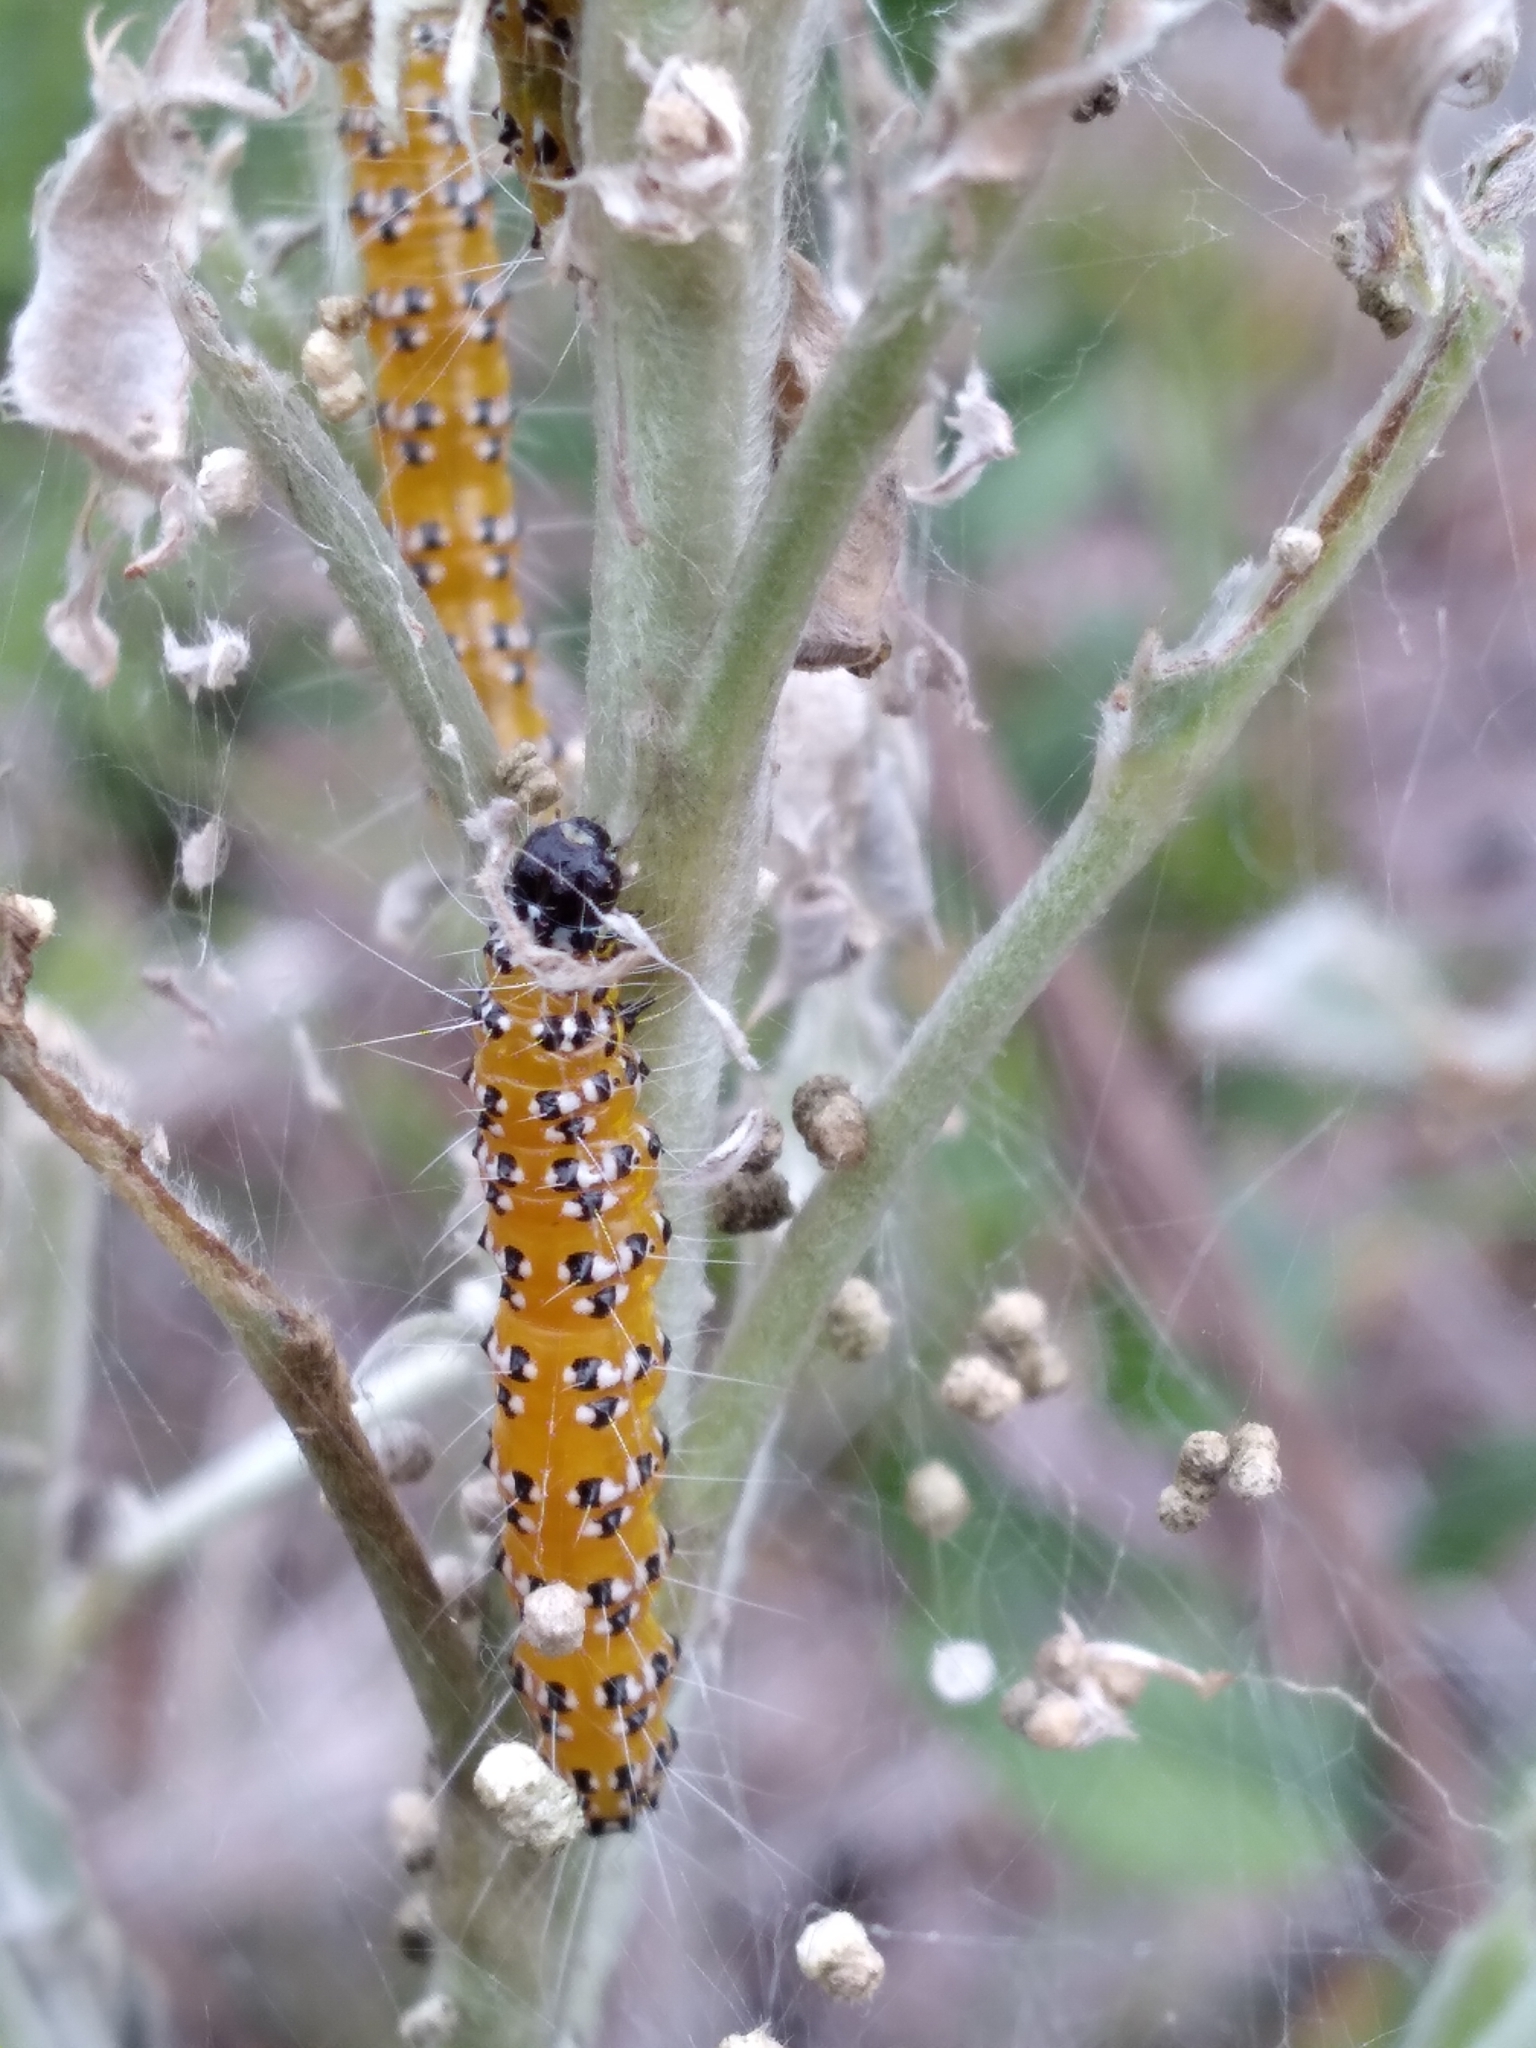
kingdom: Animalia
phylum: Arthropoda
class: Insecta
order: Lepidoptera
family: Crambidae
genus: Uresiphita
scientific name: Uresiphita reversalis
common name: Genista broom moth
